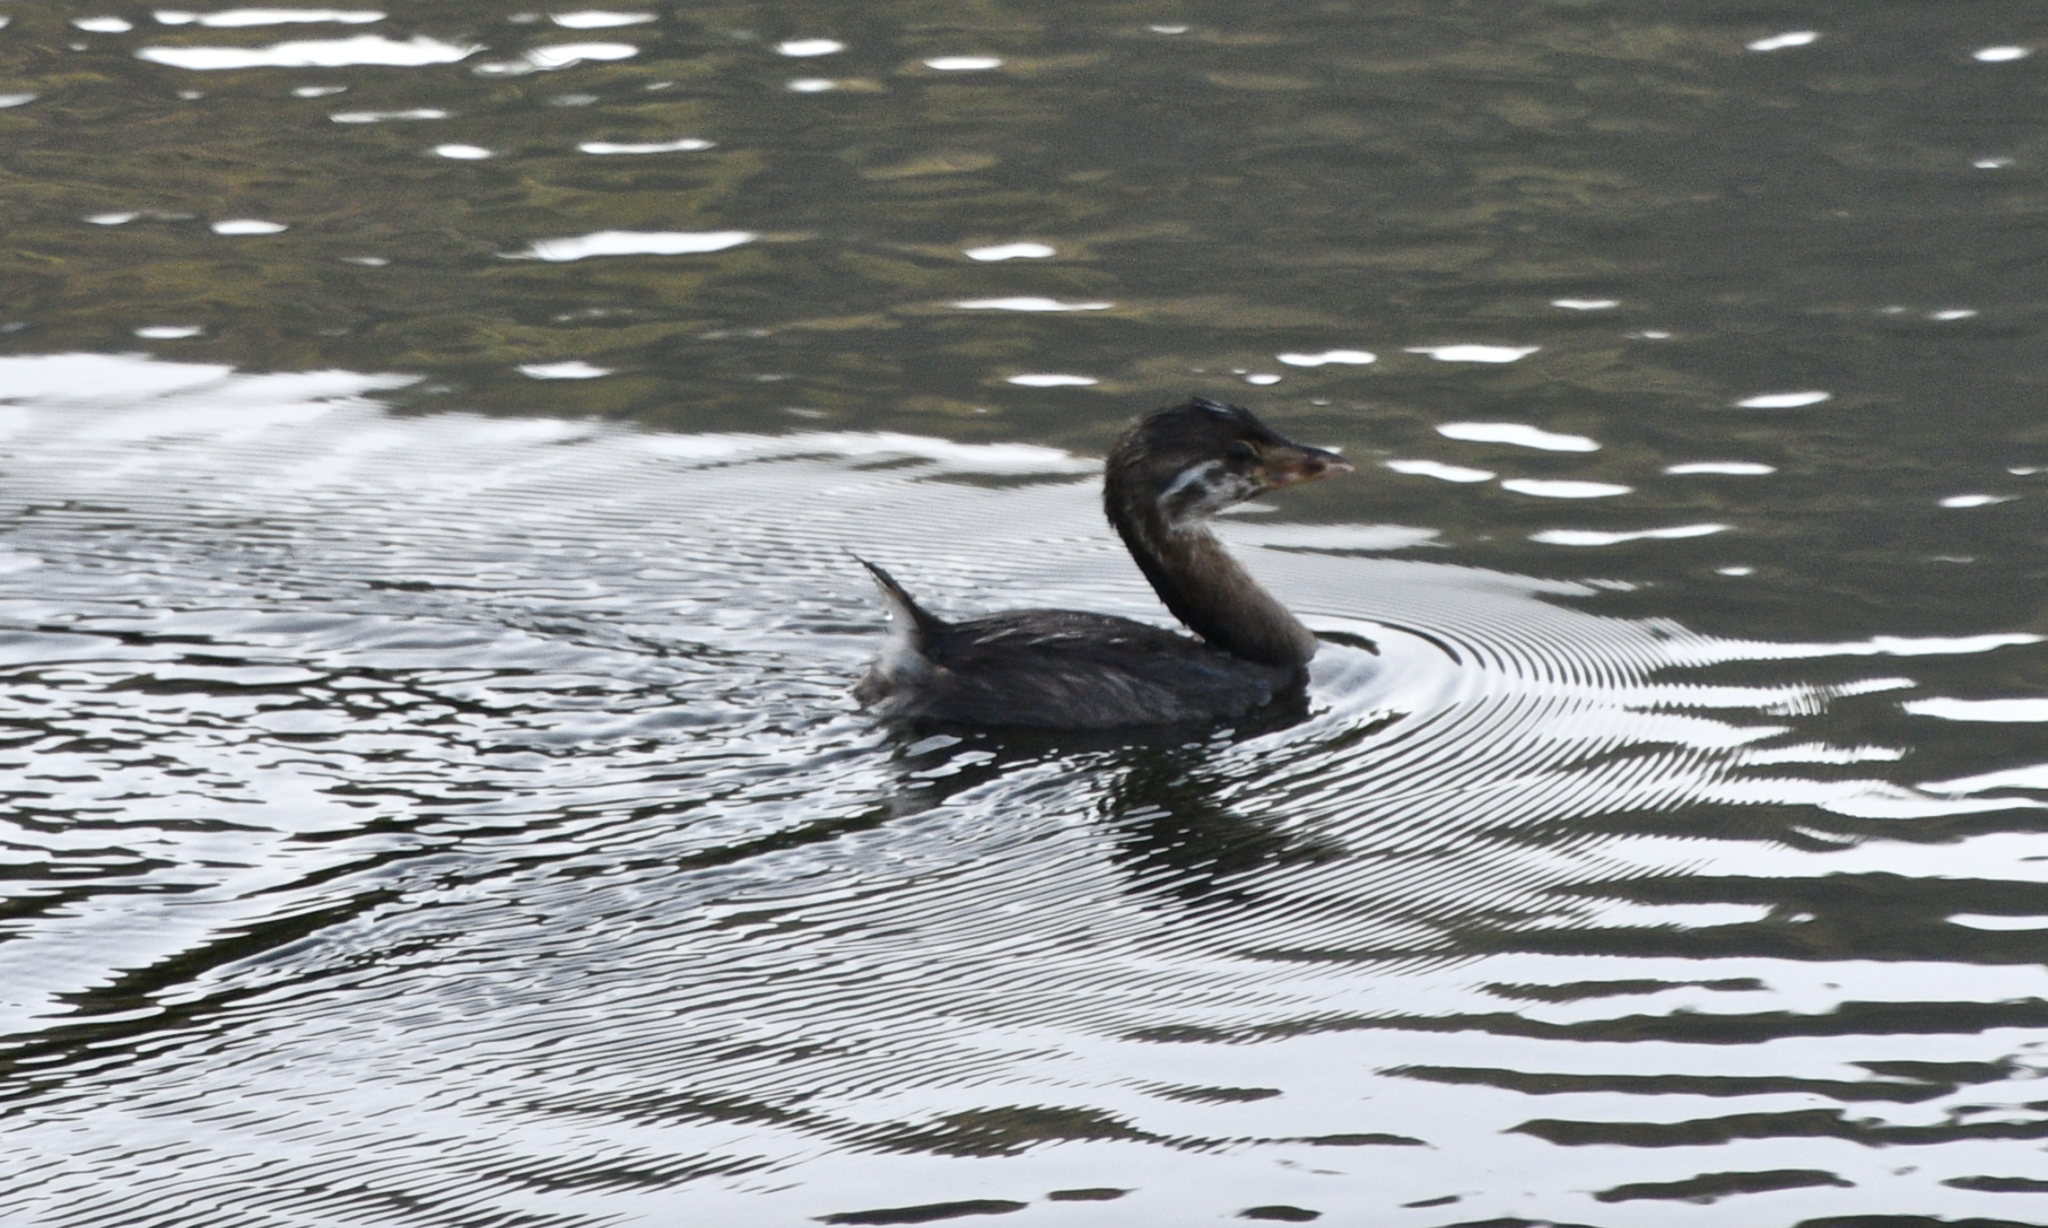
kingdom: Animalia
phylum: Chordata
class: Aves
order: Podicipediformes
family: Podicipedidae
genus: Podilymbus
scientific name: Podilymbus podiceps
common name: Pied-billed grebe
